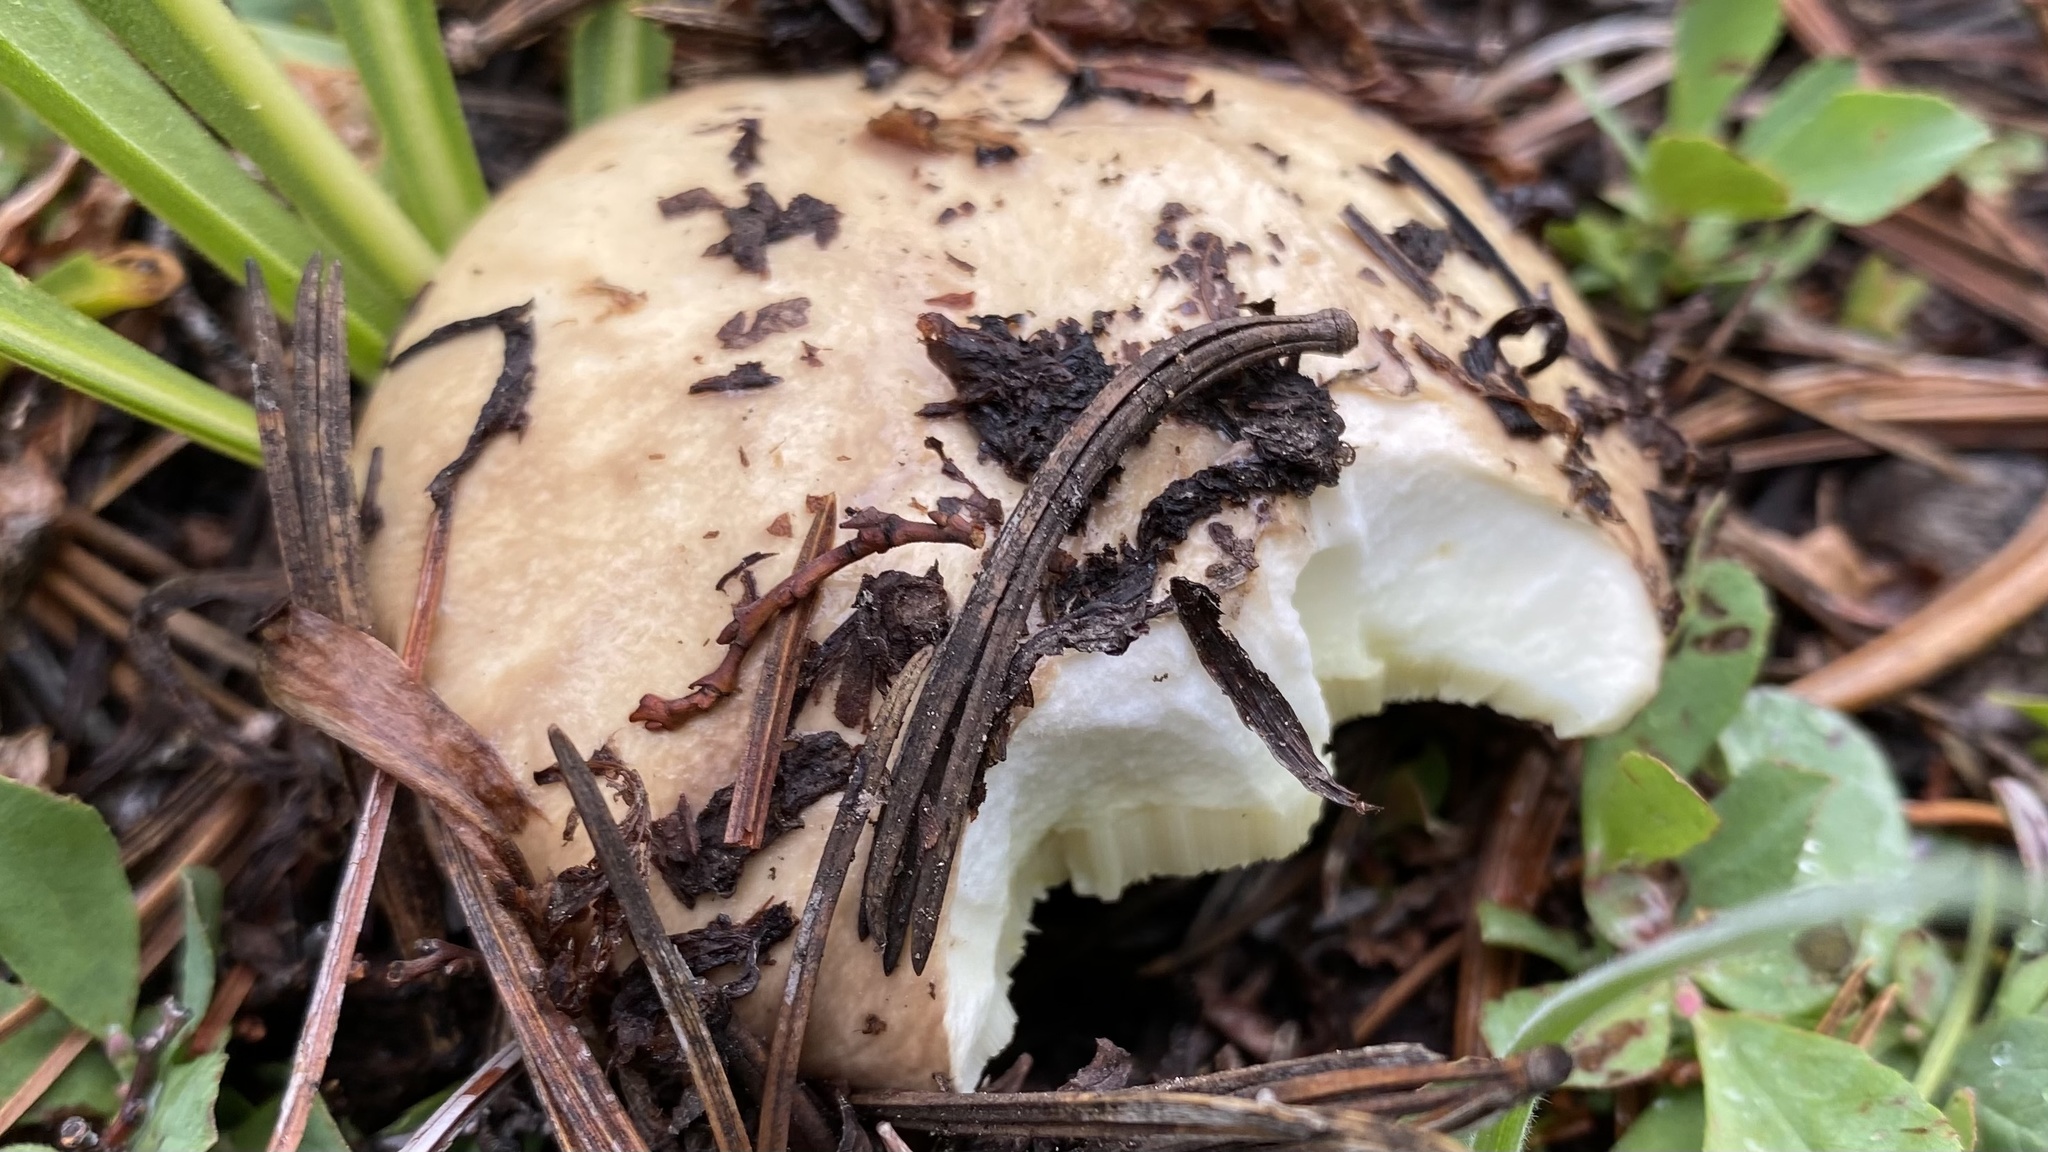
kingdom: Fungi
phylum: Basidiomycota
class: Agaricomycetes
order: Boletales
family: Suillaceae
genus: Suillus
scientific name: Suillus borealis
